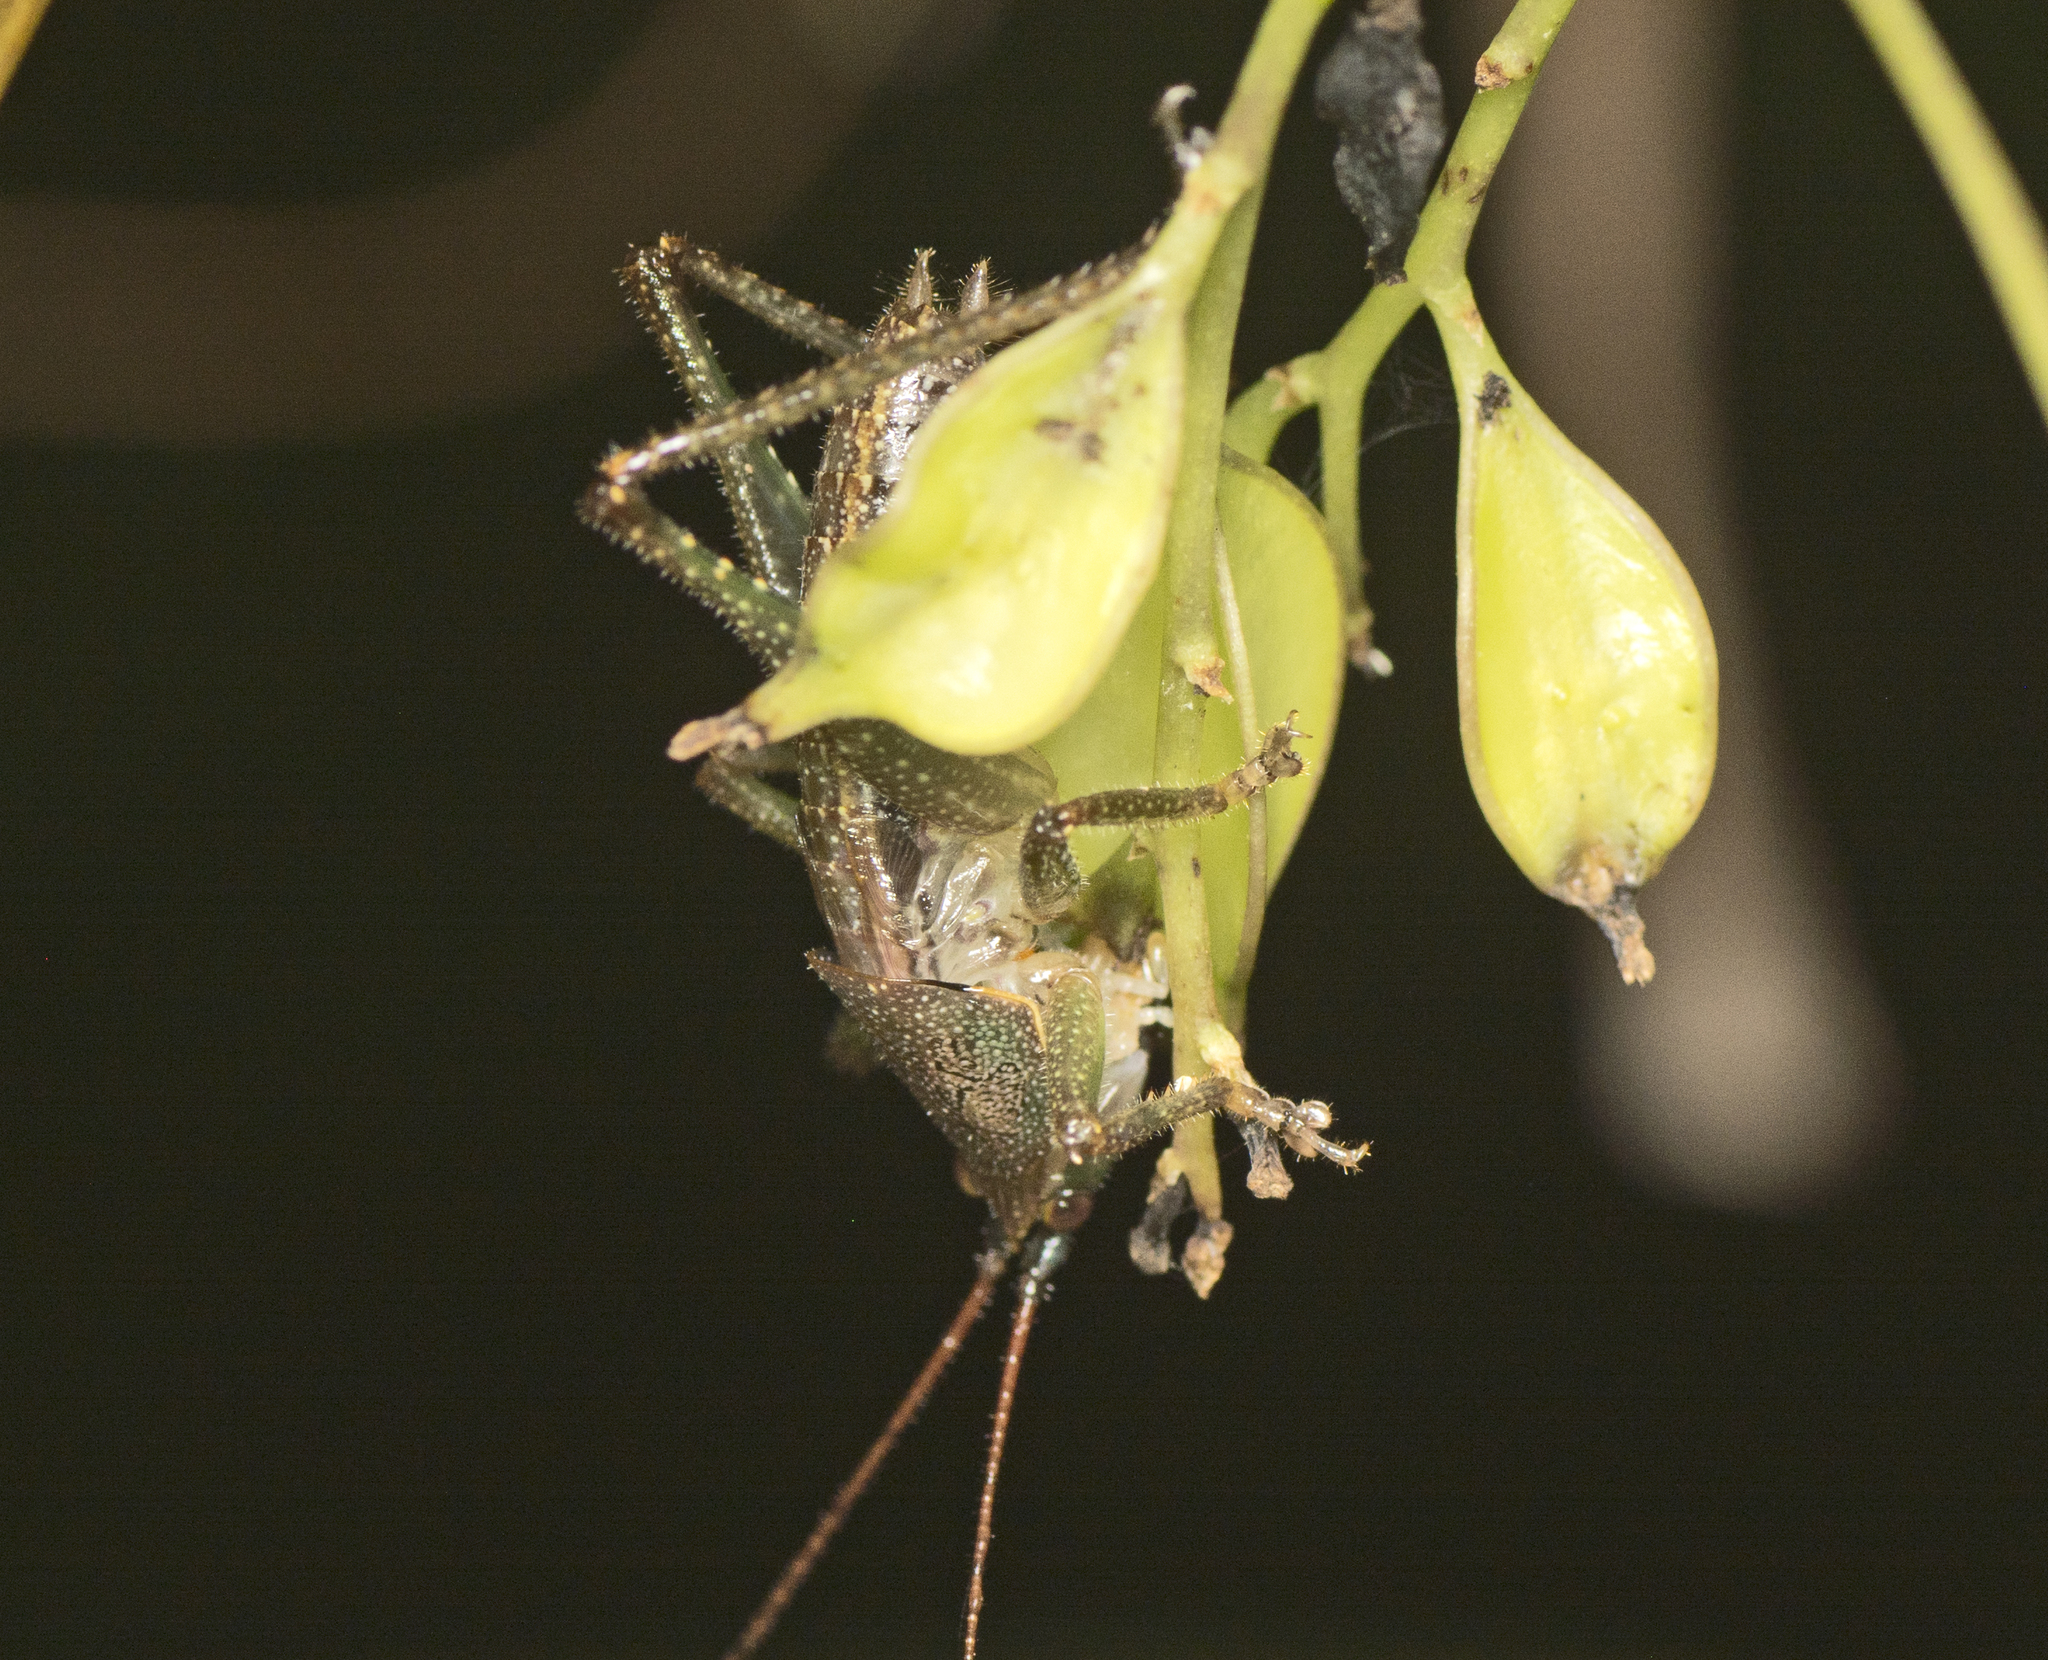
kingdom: Animalia
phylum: Arthropoda
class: Insecta
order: Orthoptera
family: Tettigoniidae
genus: Austrosalomona
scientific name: Austrosalomona falcata
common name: Olive-green coastal katydid
